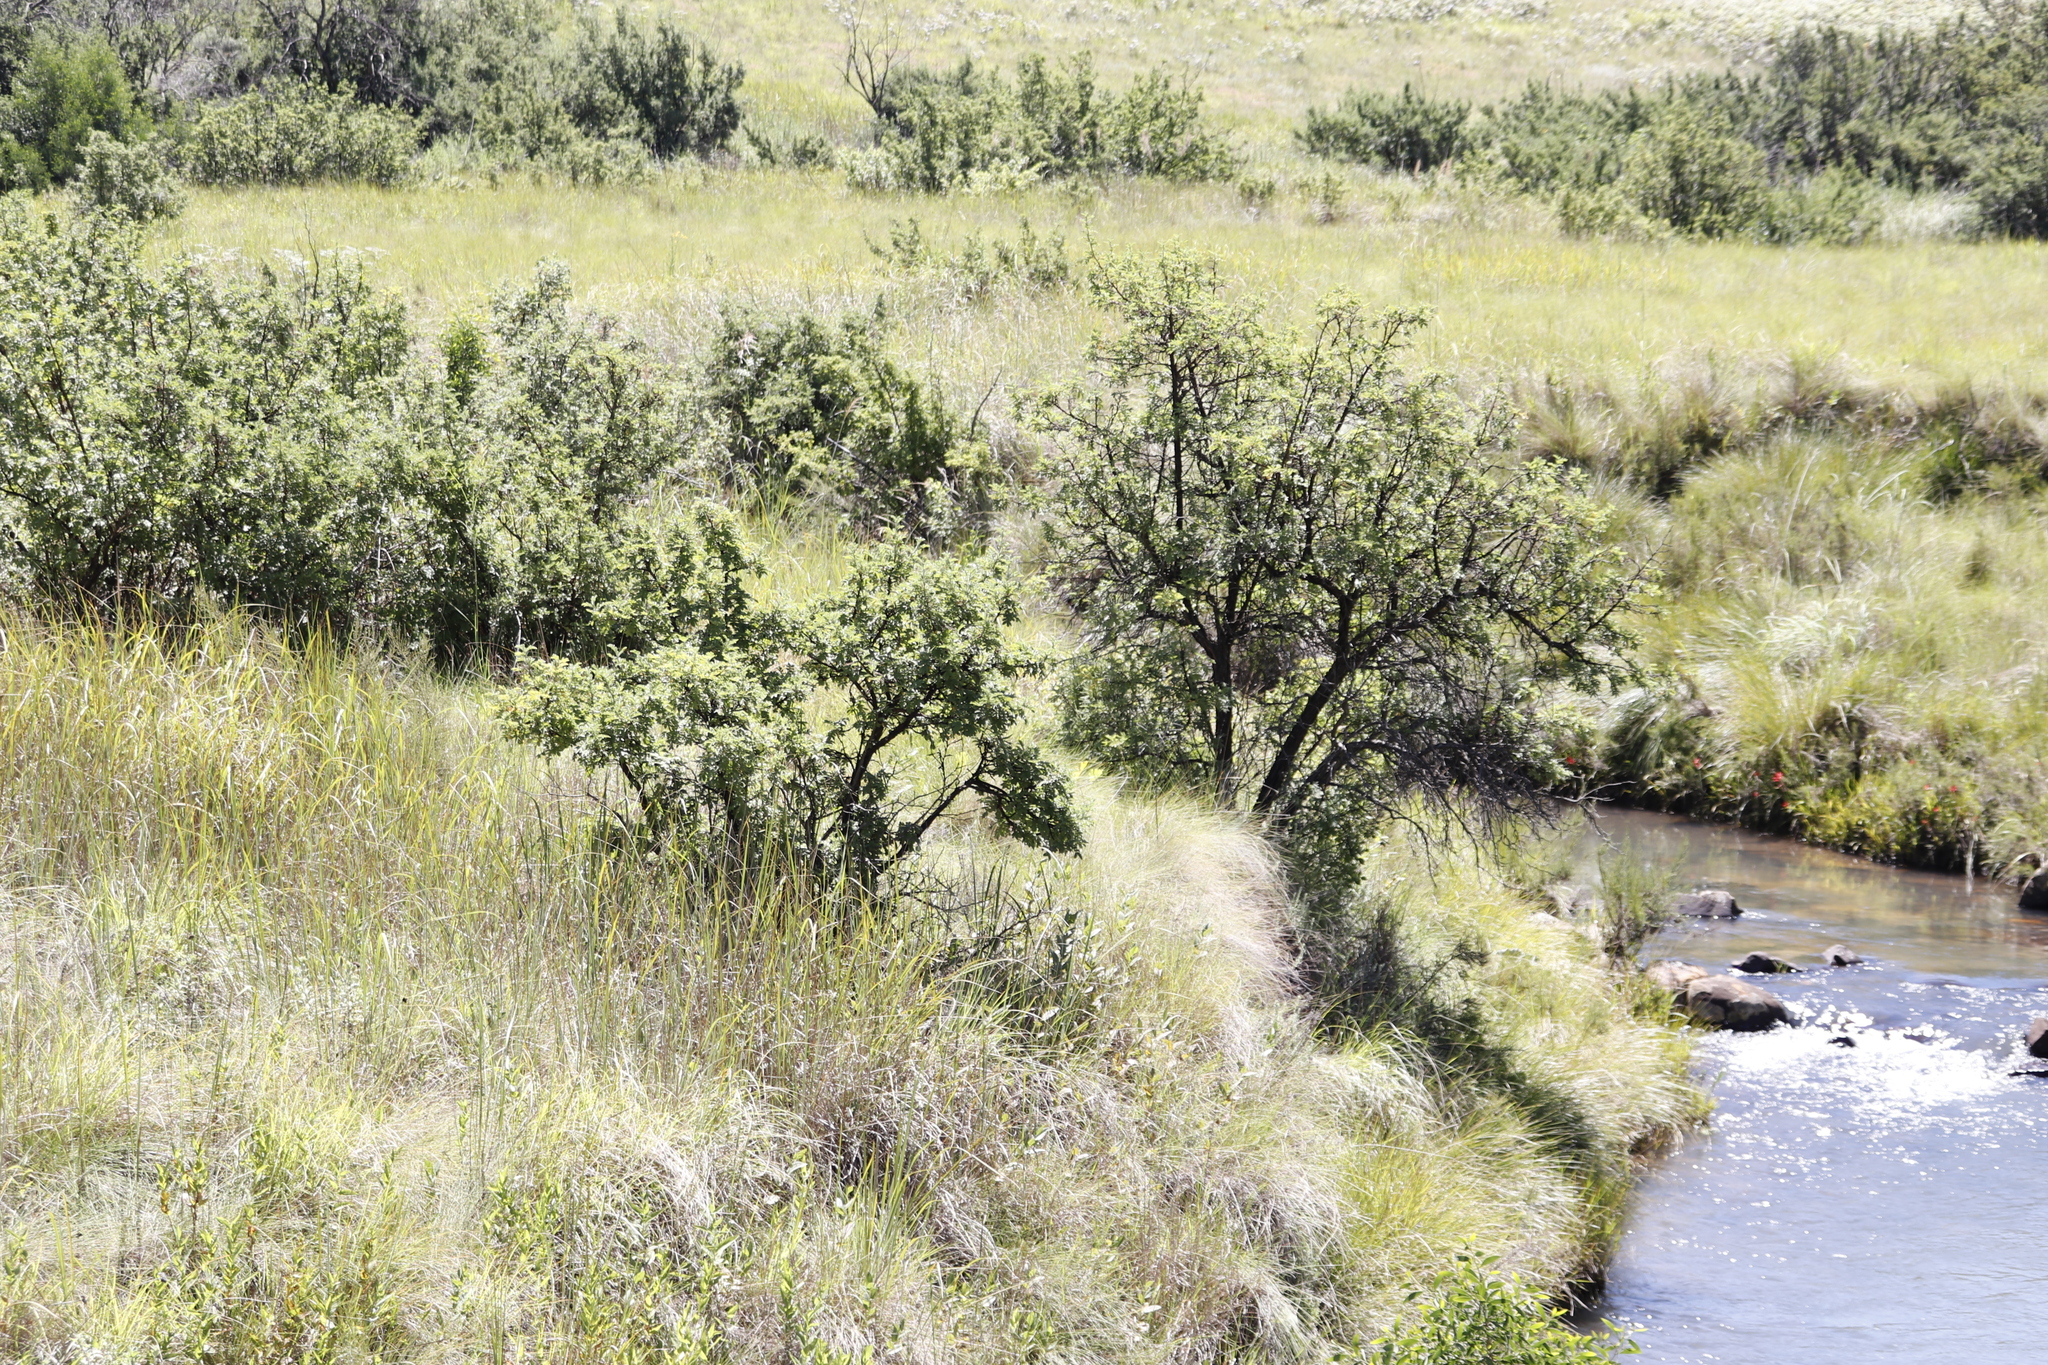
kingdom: Plantae
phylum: Tracheophyta
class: Magnoliopsida
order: Rosales
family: Rosaceae
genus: Leucosidea
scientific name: Leucosidea sericea
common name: Oldwood
